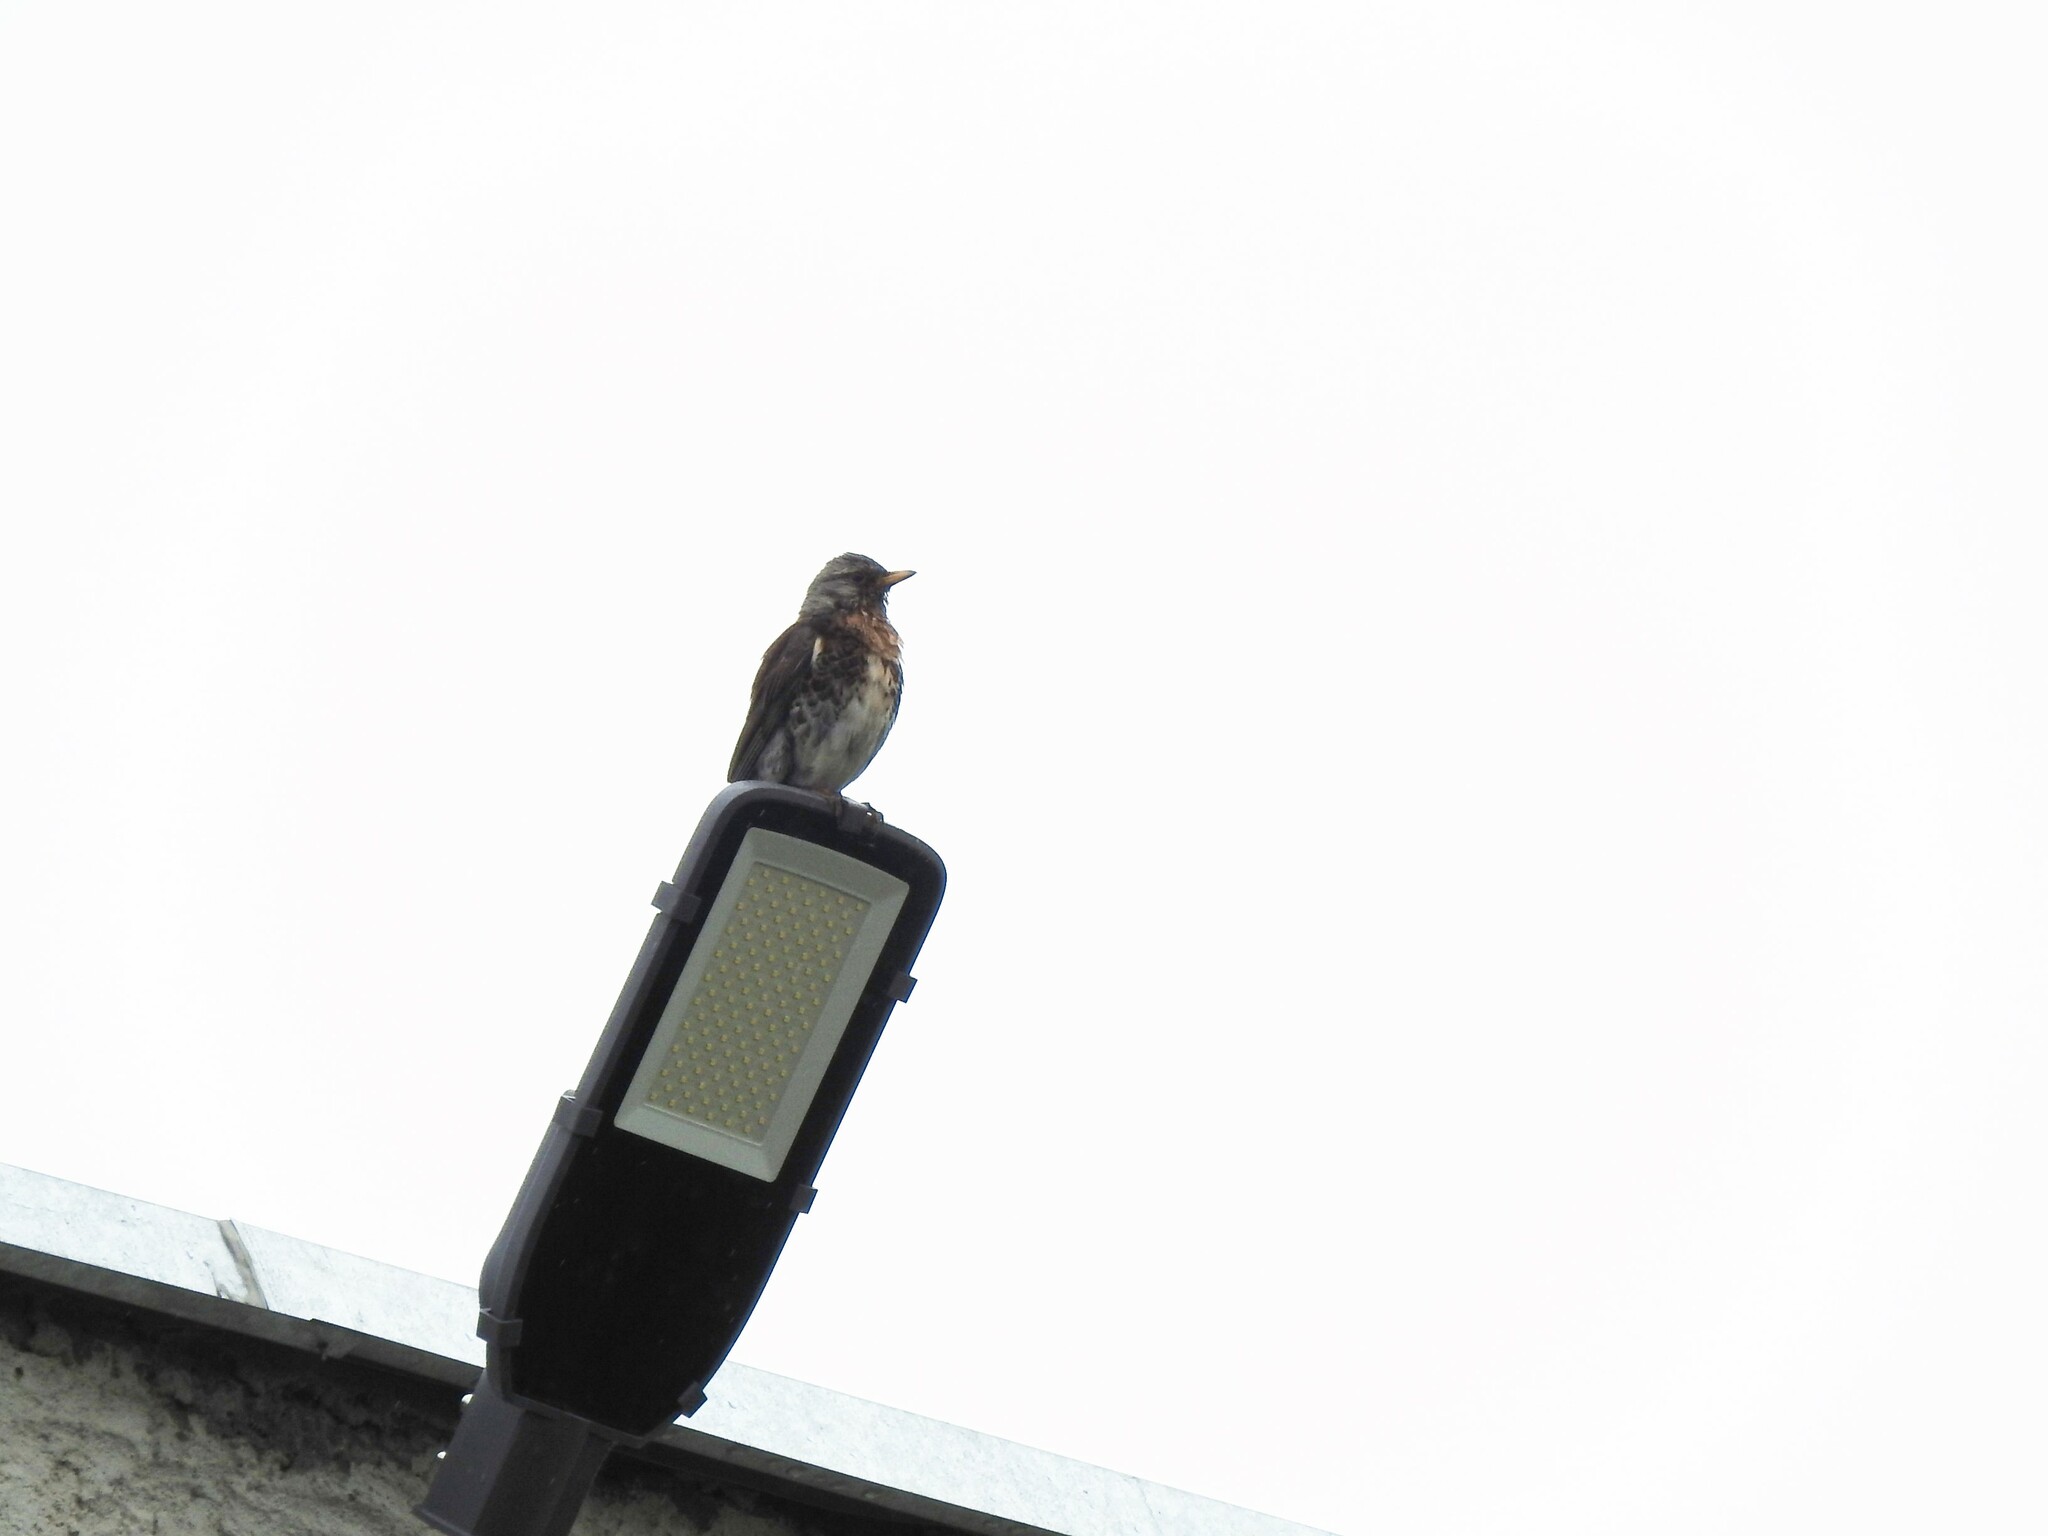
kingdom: Animalia
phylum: Chordata
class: Aves
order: Passeriformes
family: Turdidae
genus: Turdus
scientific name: Turdus pilaris
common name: Fieldfare
